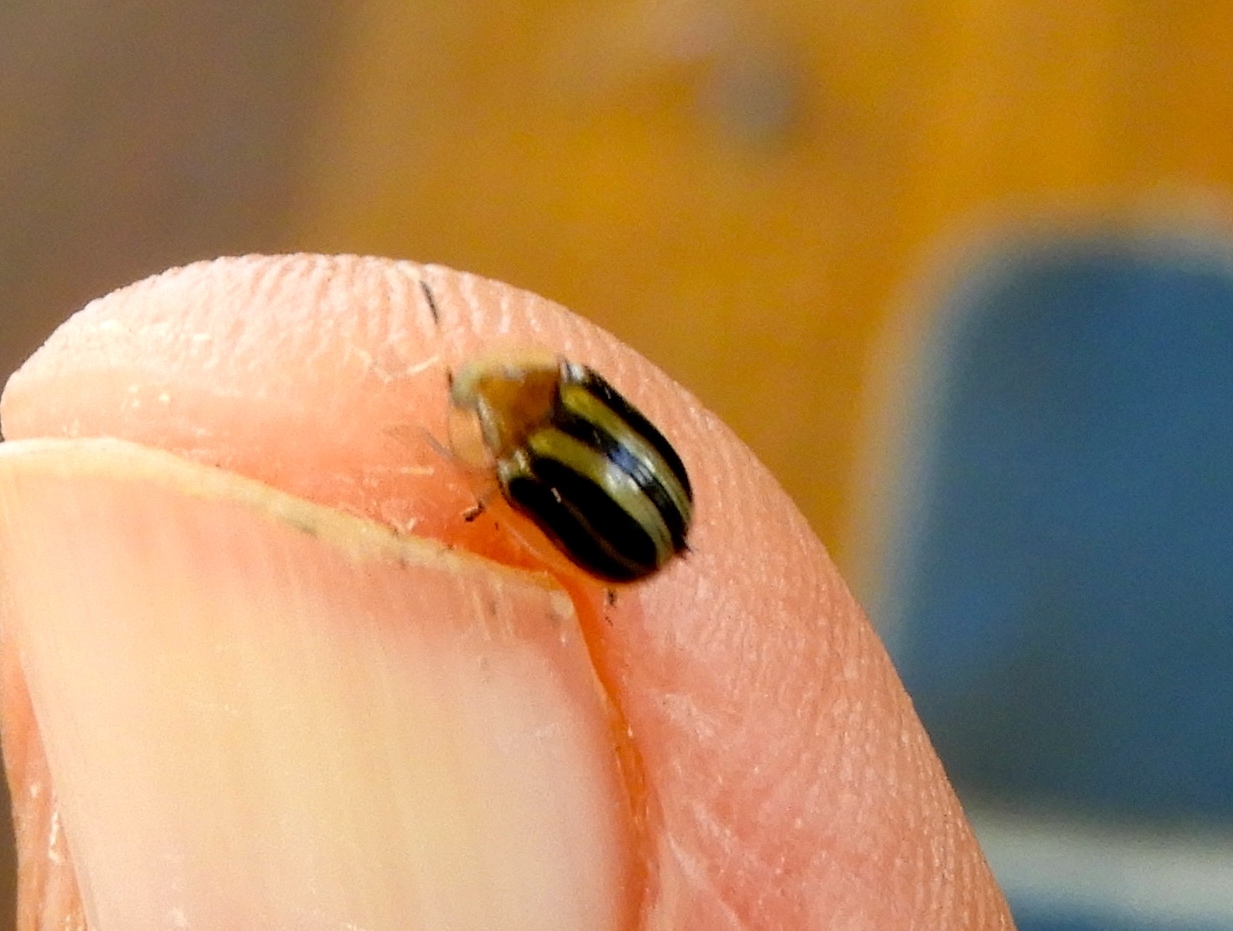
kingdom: Animalia
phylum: Arthropoda
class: Insecta
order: Coleoptera
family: Chrysomelidae
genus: Agroiconota
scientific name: Agroiconota bivittata
